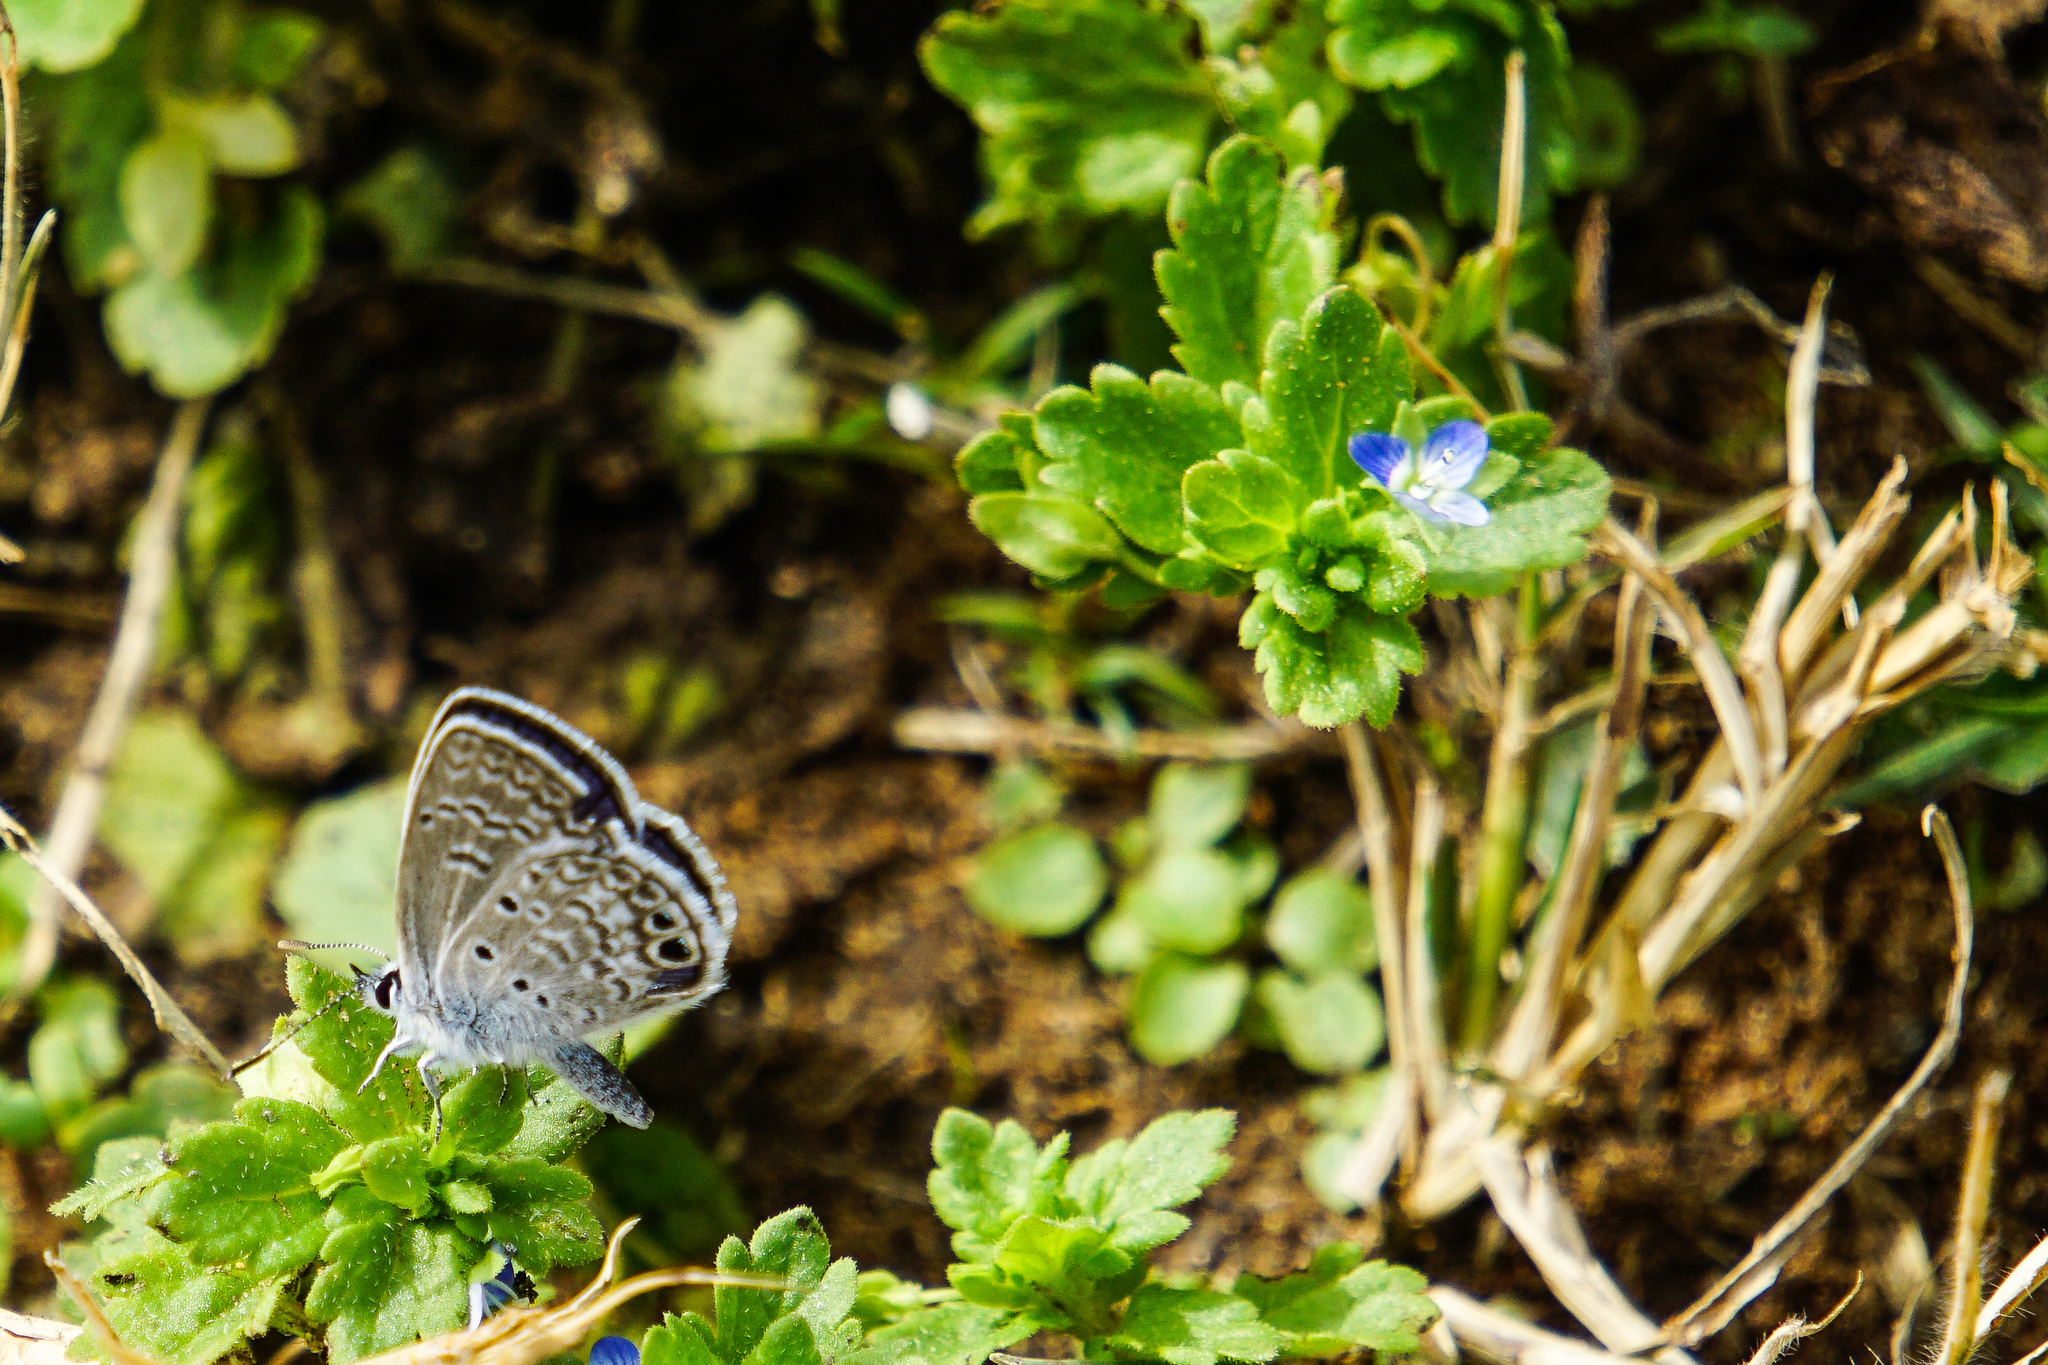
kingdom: Animalia
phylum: Arthropoda
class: Insecta
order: Lepidoptera
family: Lycaenidae
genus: Hemiargus
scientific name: Hemiargus ceraunus
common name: Ceraunus blue
